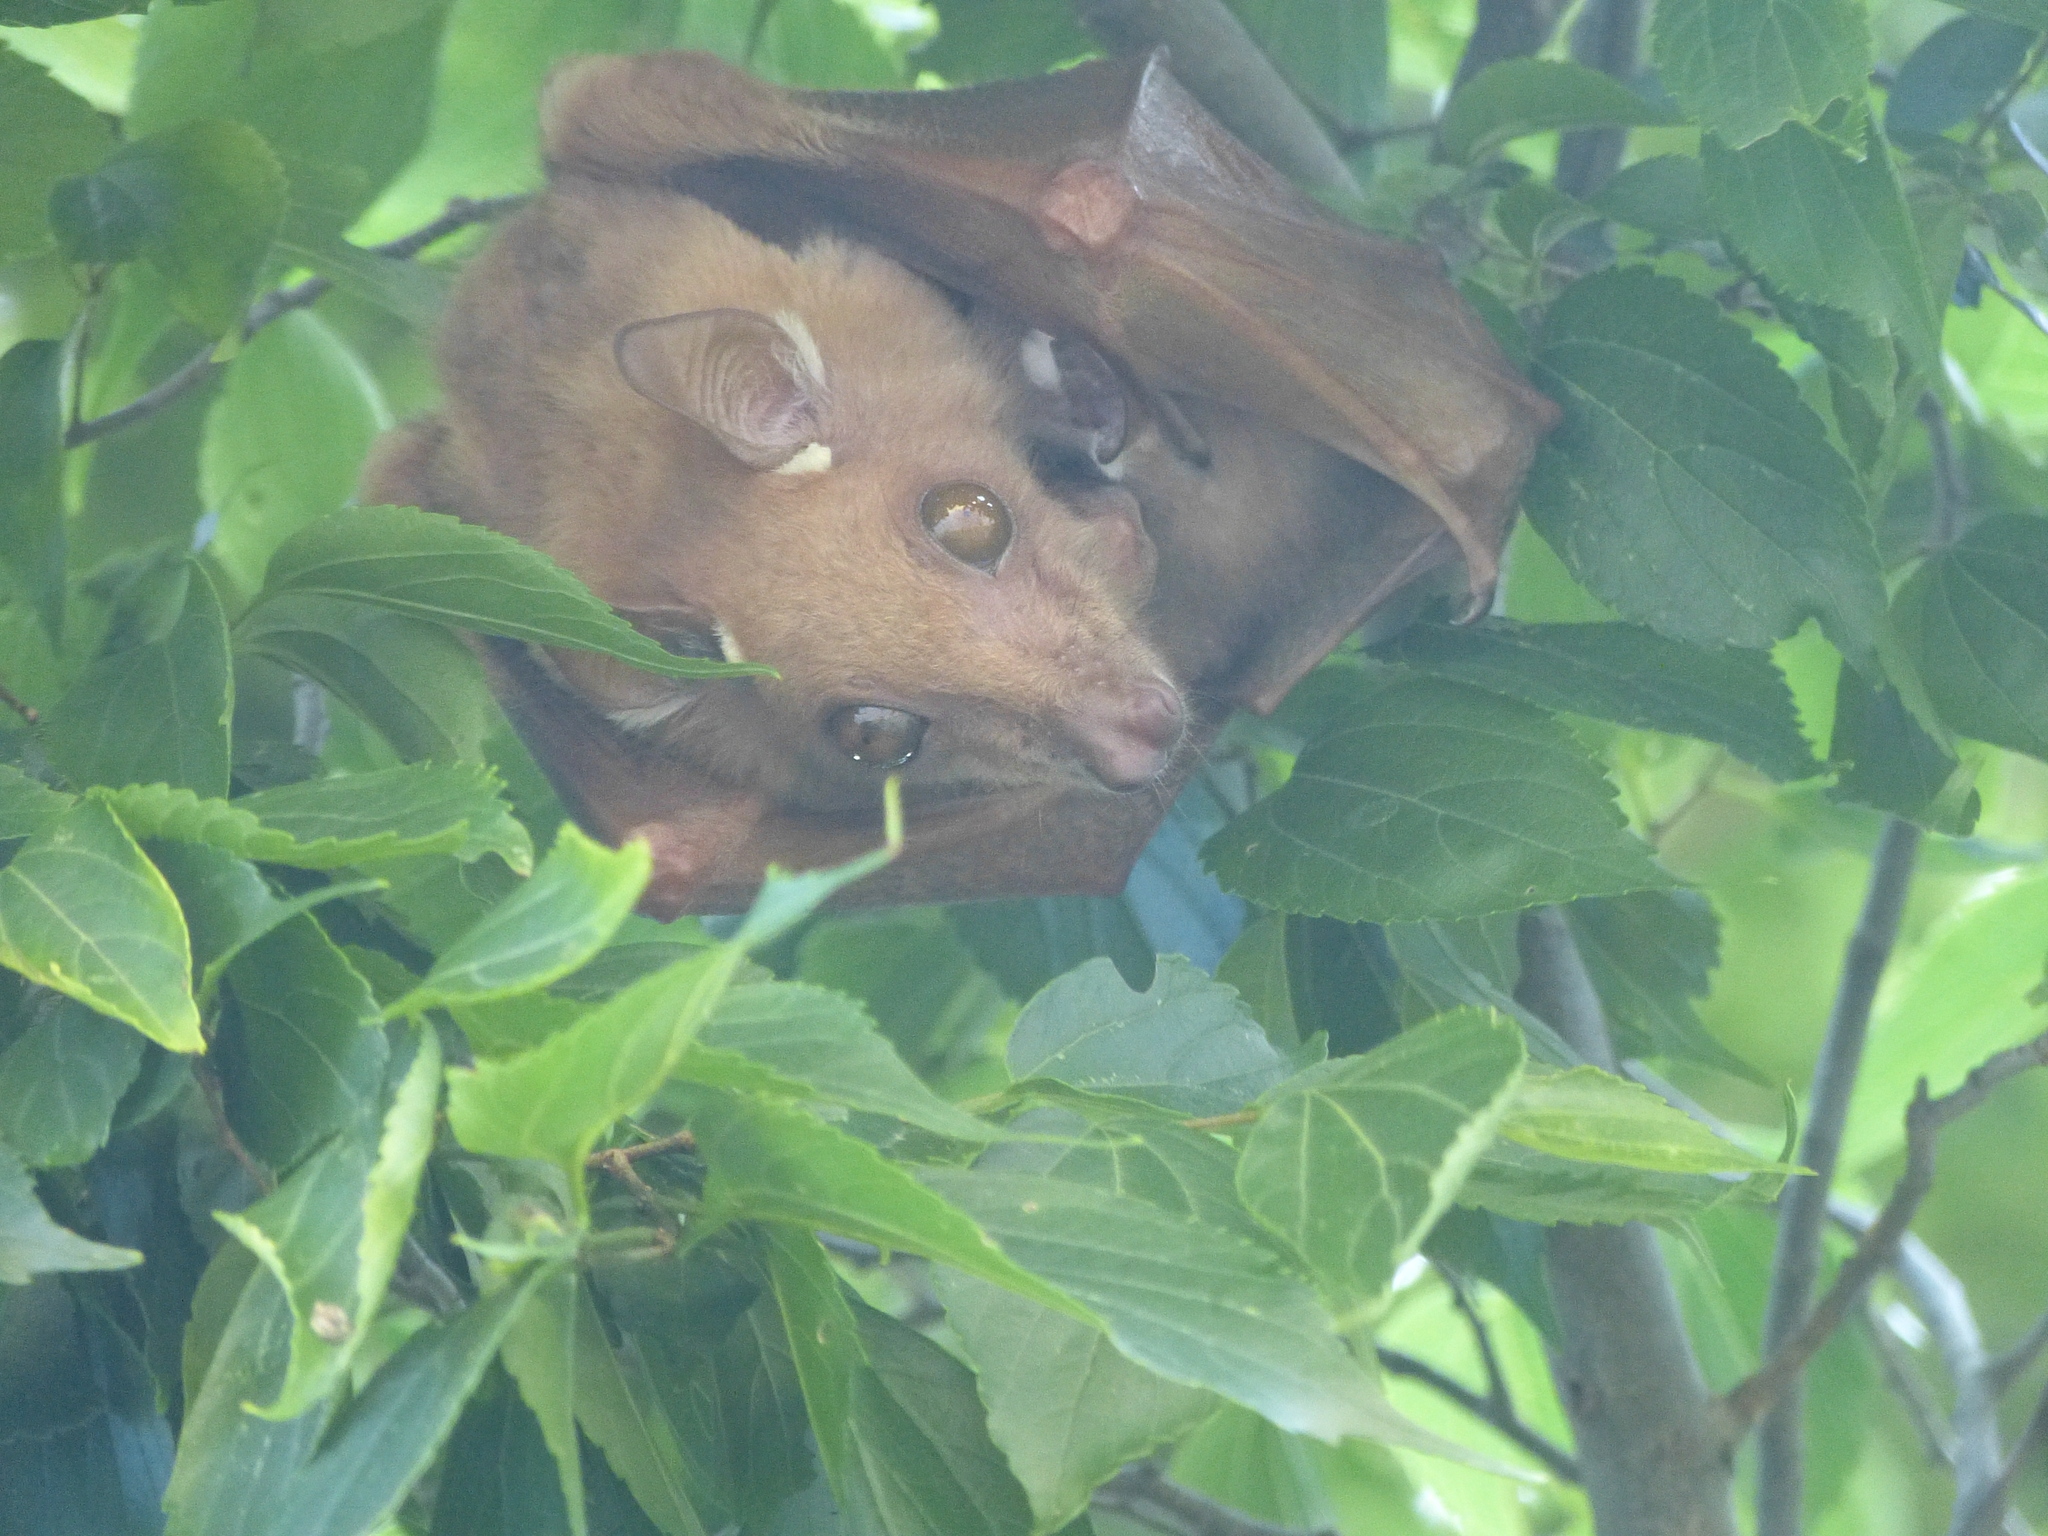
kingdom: Animalia
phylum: Chordata
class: Mammalia
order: Chiroptera
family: Pteropodidae
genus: Epomophorus
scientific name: Epomophorus wahlbergi
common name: Wahlberg's epauletted fruit bat
